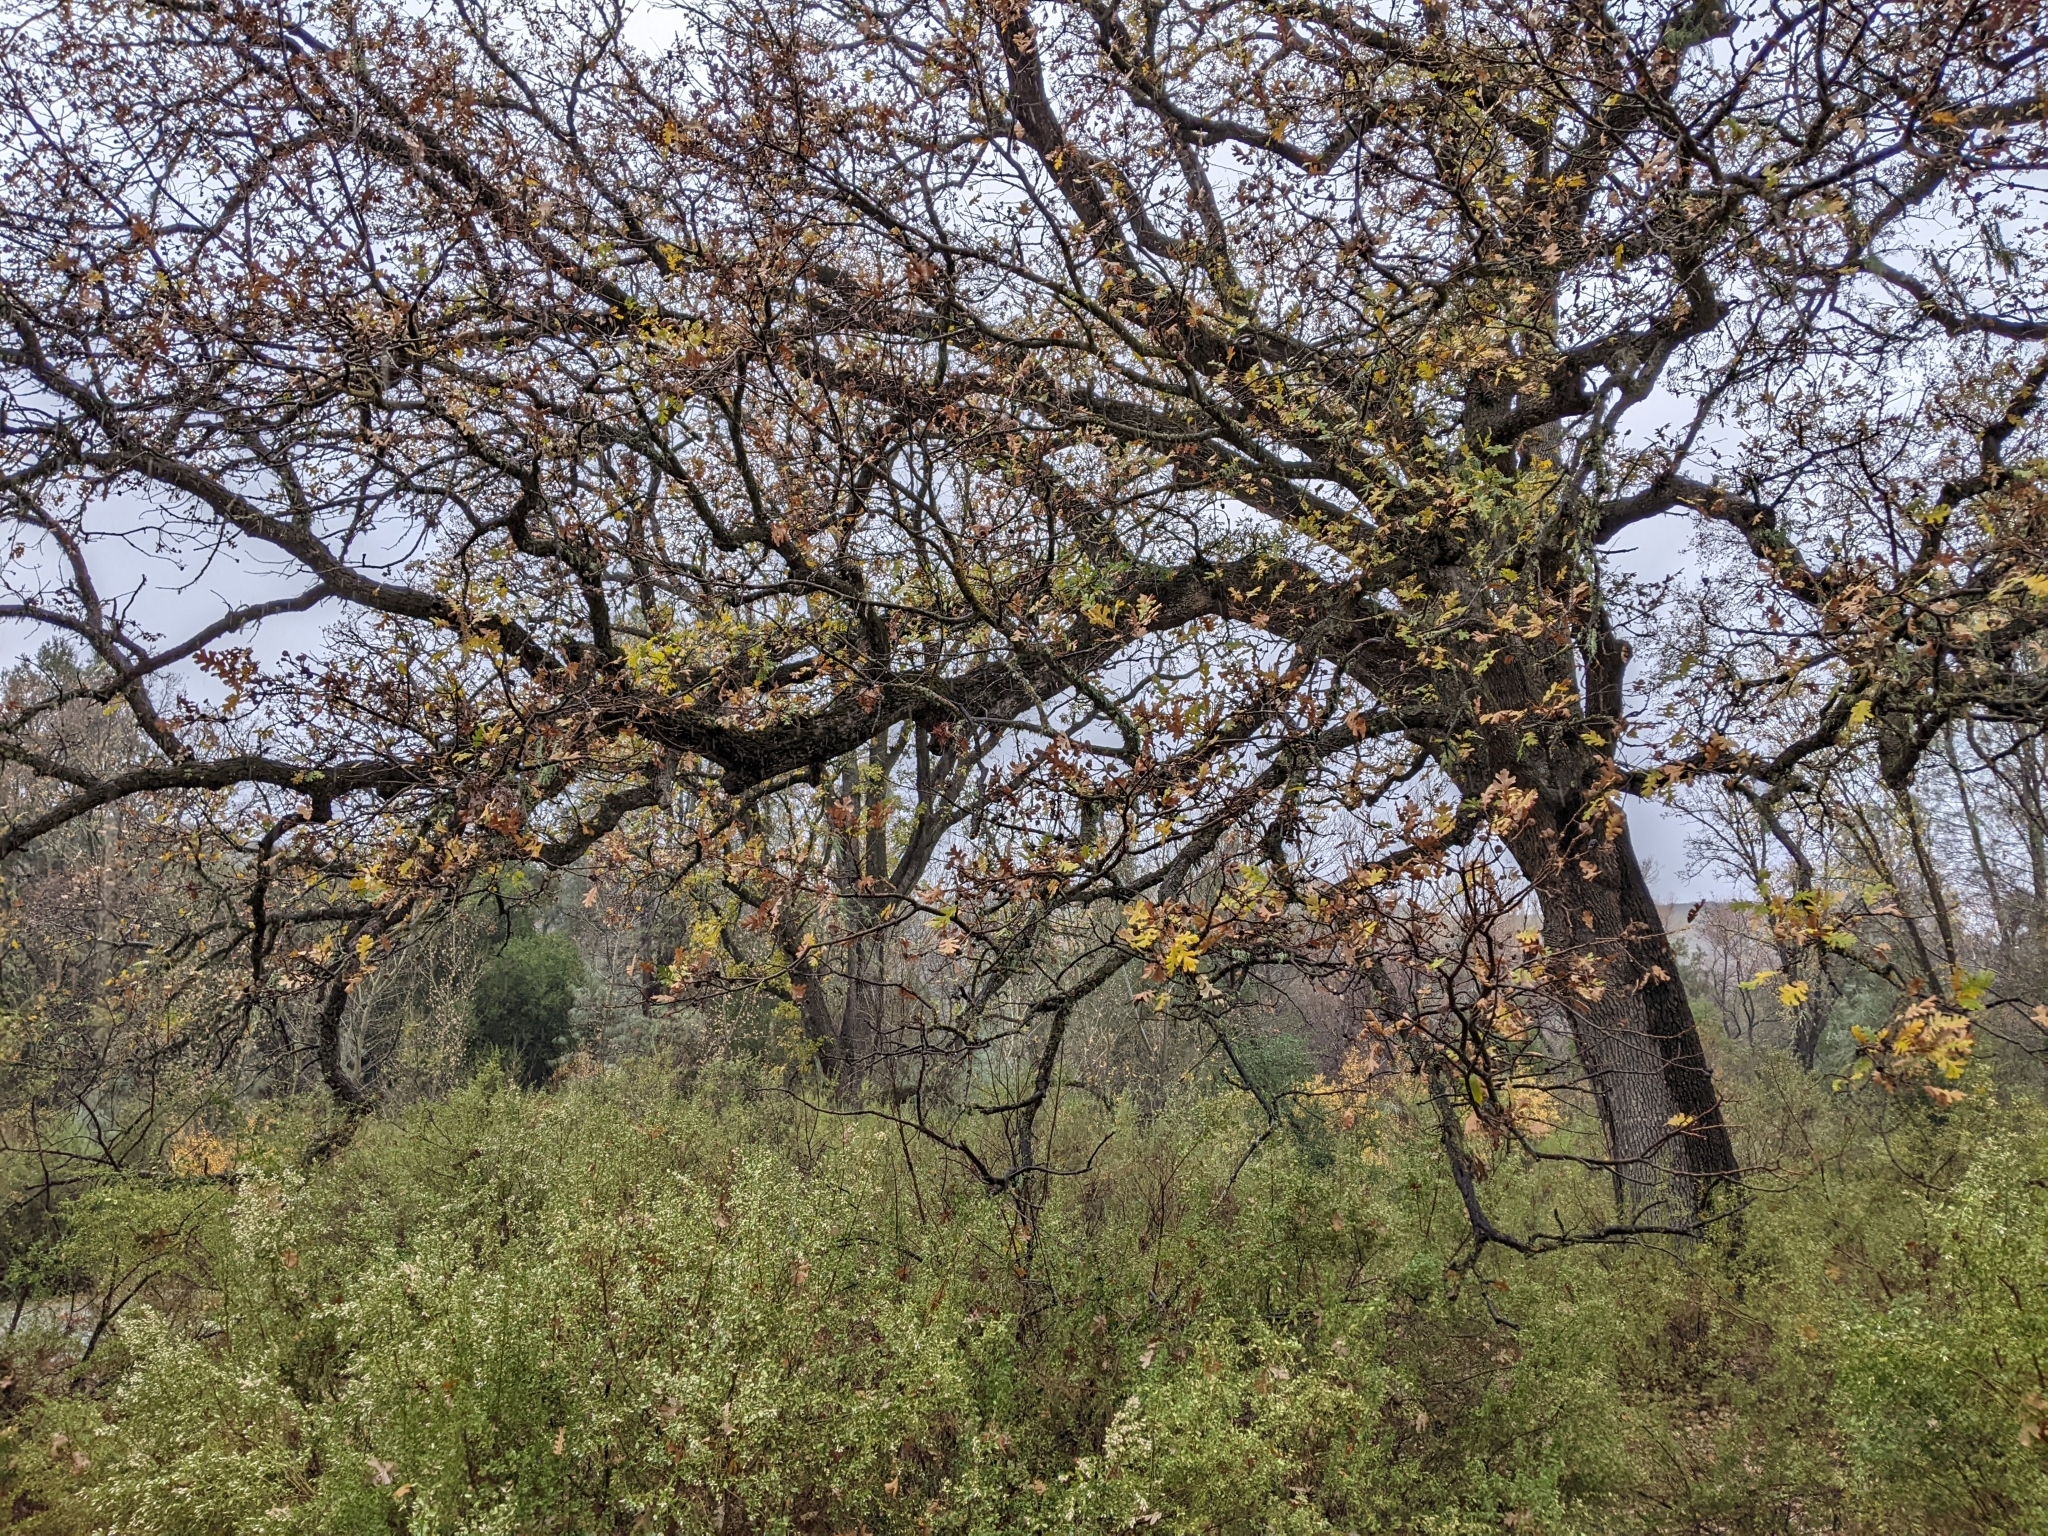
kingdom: Plantae
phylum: Tracheophyta
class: Magnoliopsida
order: Fagales
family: Fagaceae
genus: Quercus
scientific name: Quercus lobata
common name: Valley oak
